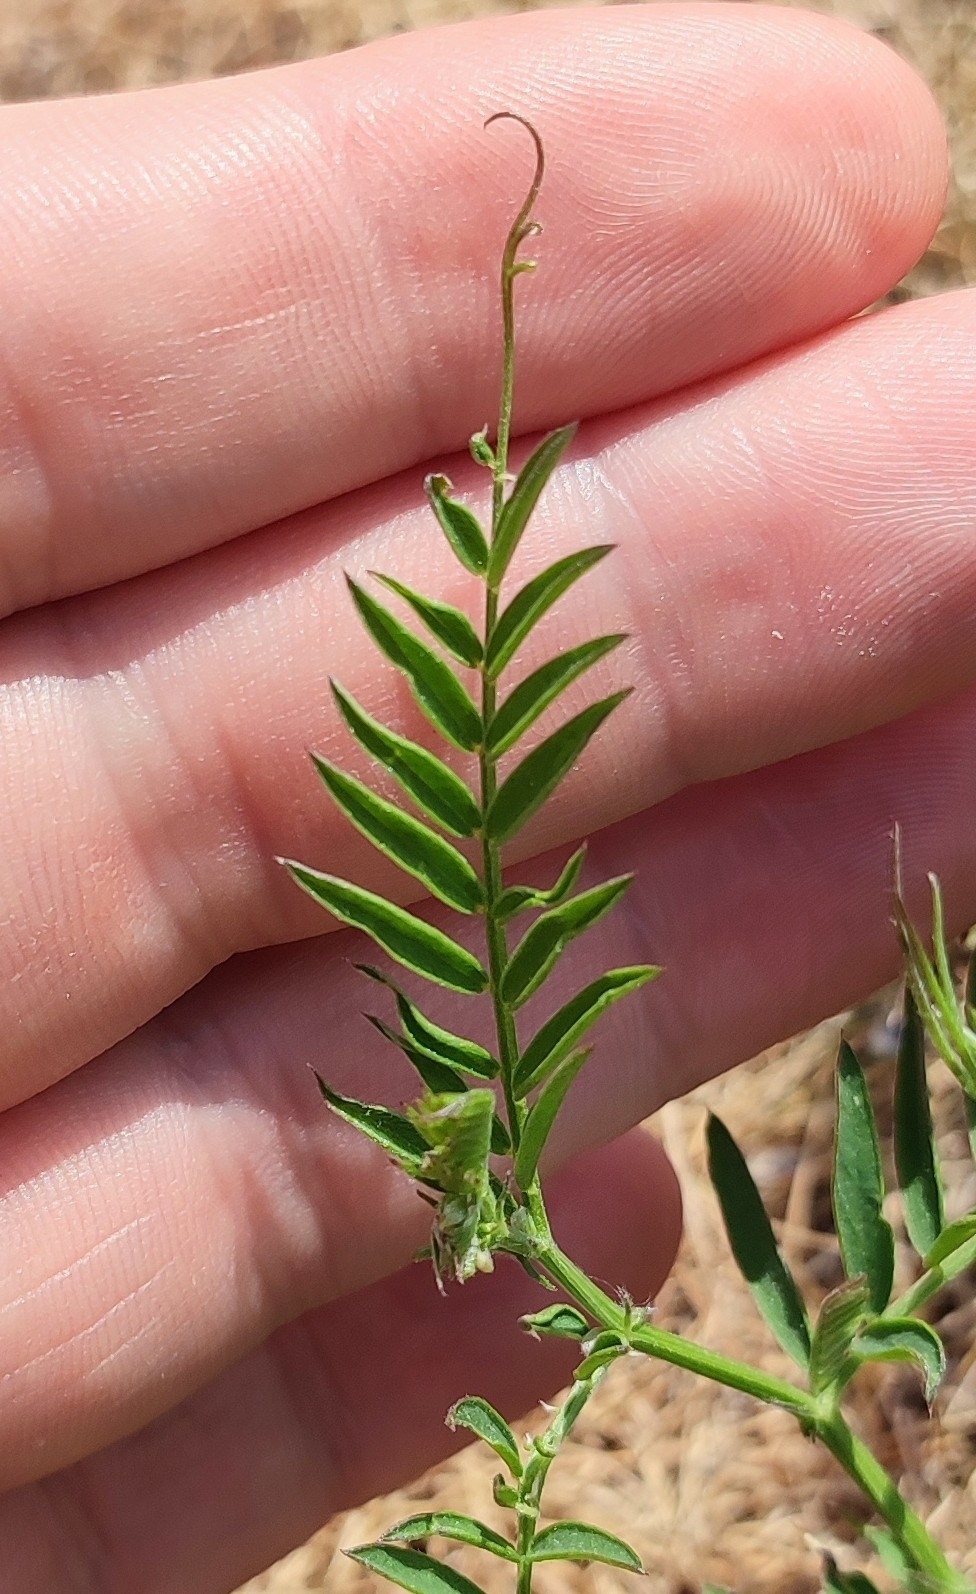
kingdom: Plantae
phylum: Tracheophyta
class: Magnoliopsida
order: Fabales
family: Fabaceae
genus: Vicia
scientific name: Vicia cracca
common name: Bird vetch
